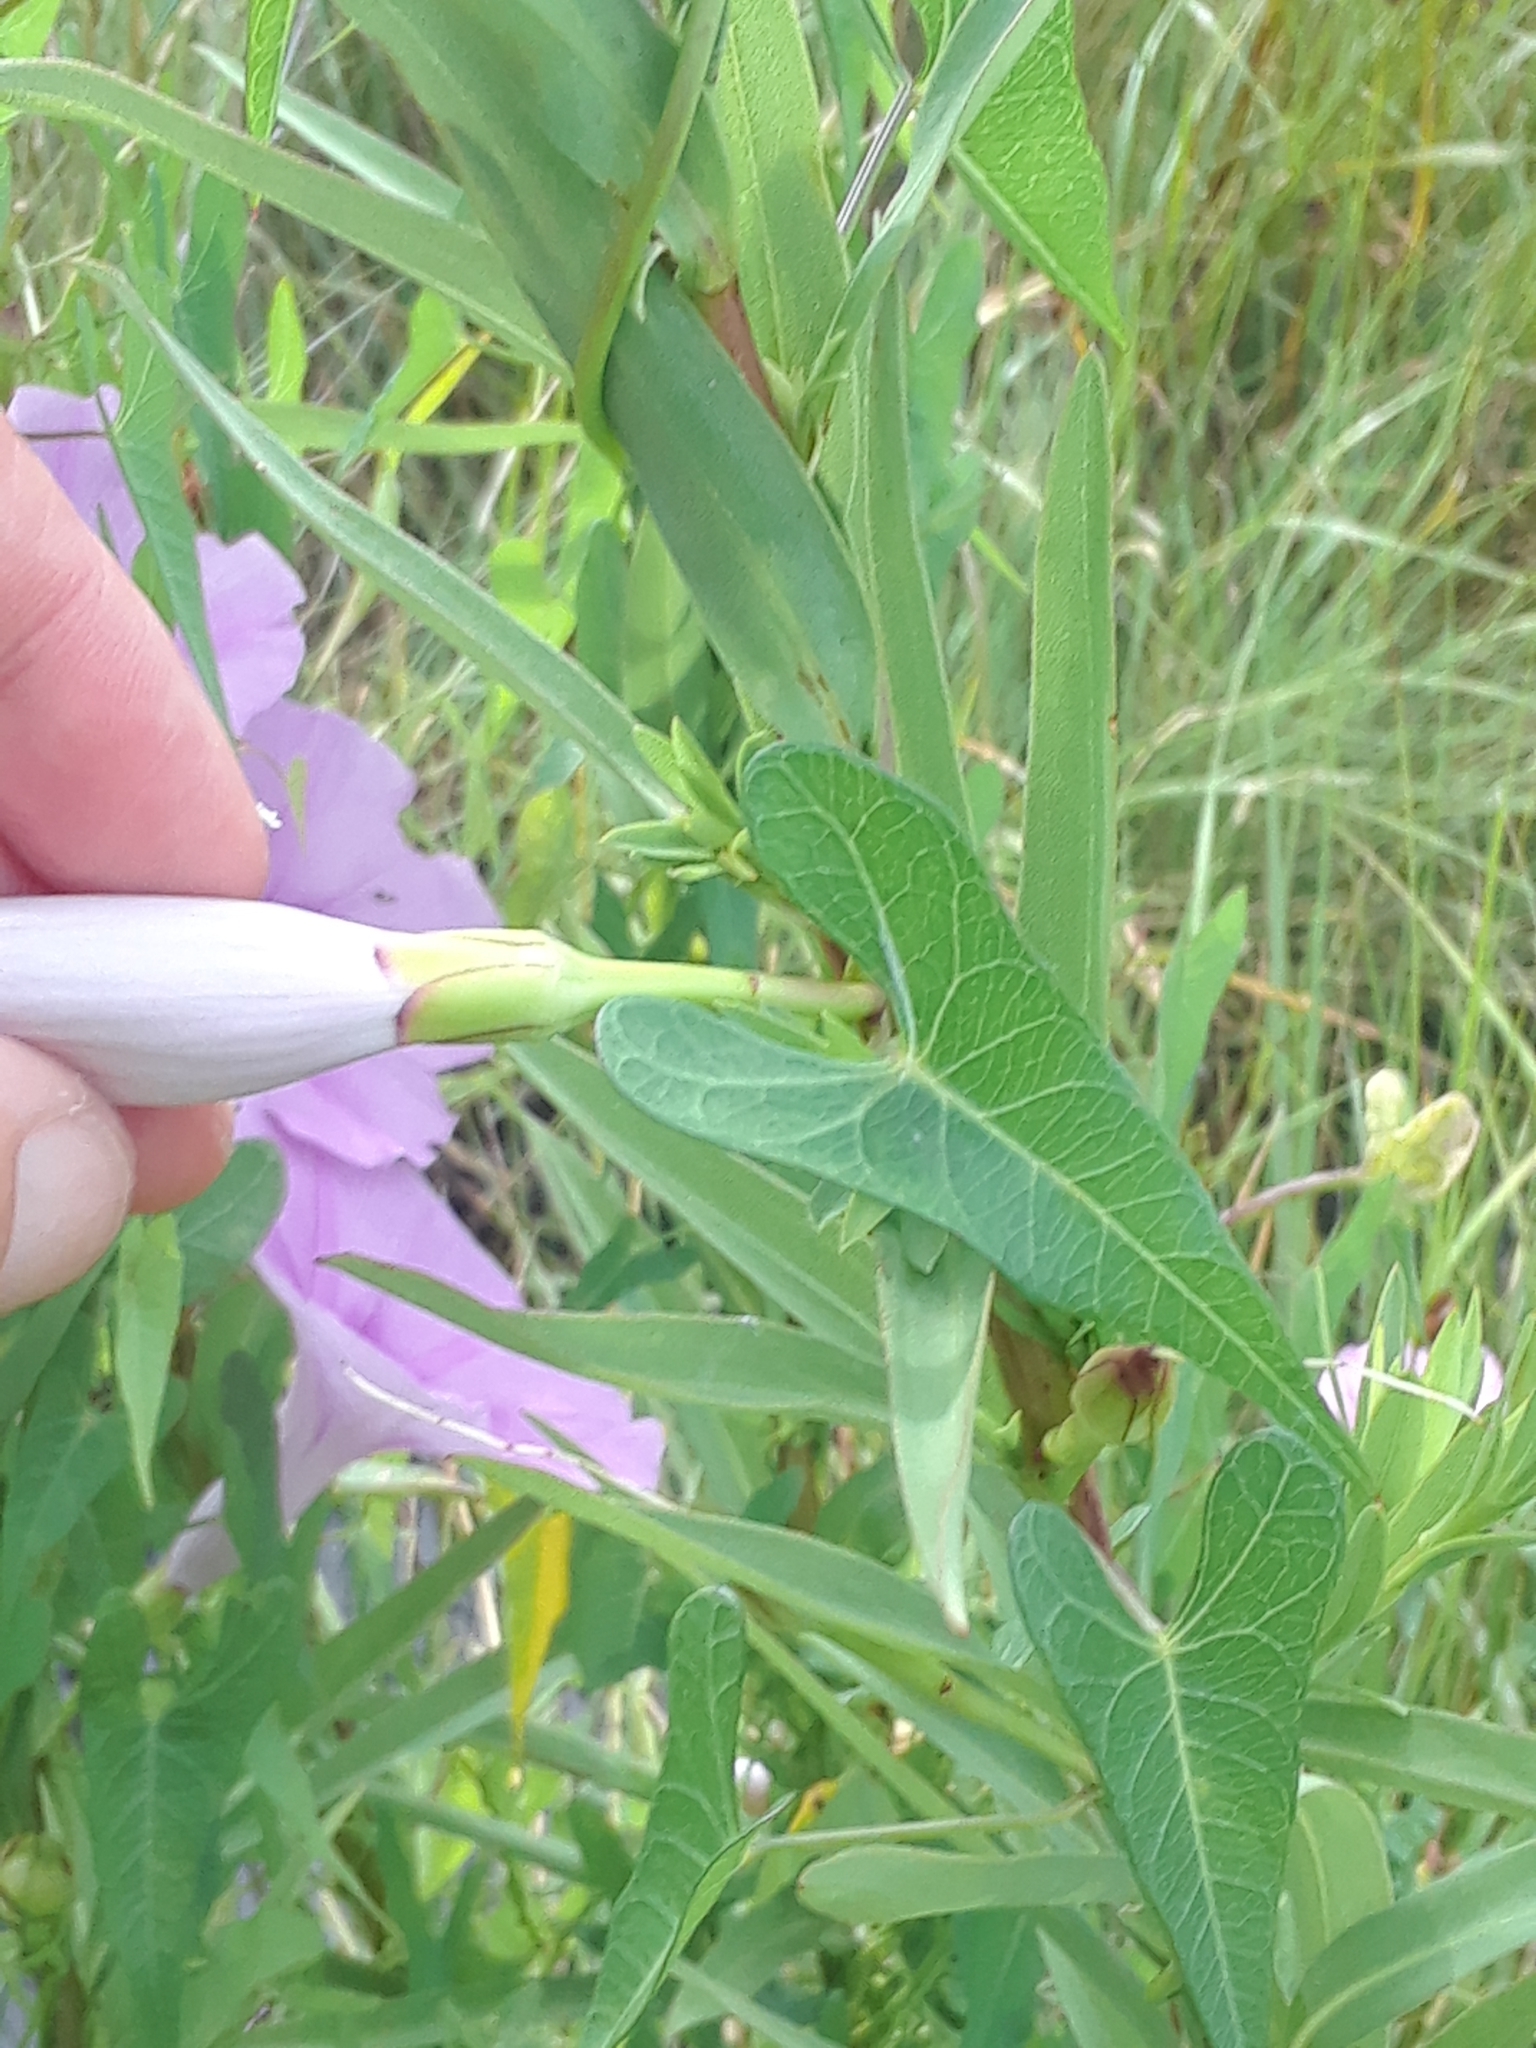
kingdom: Plantae
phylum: Tracheophyta
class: Magnoliopsida
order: Solanales
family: Convolvulaceae
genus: Ipomoea
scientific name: Ipomoea sagittata
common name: Saltmarsh morning glory
